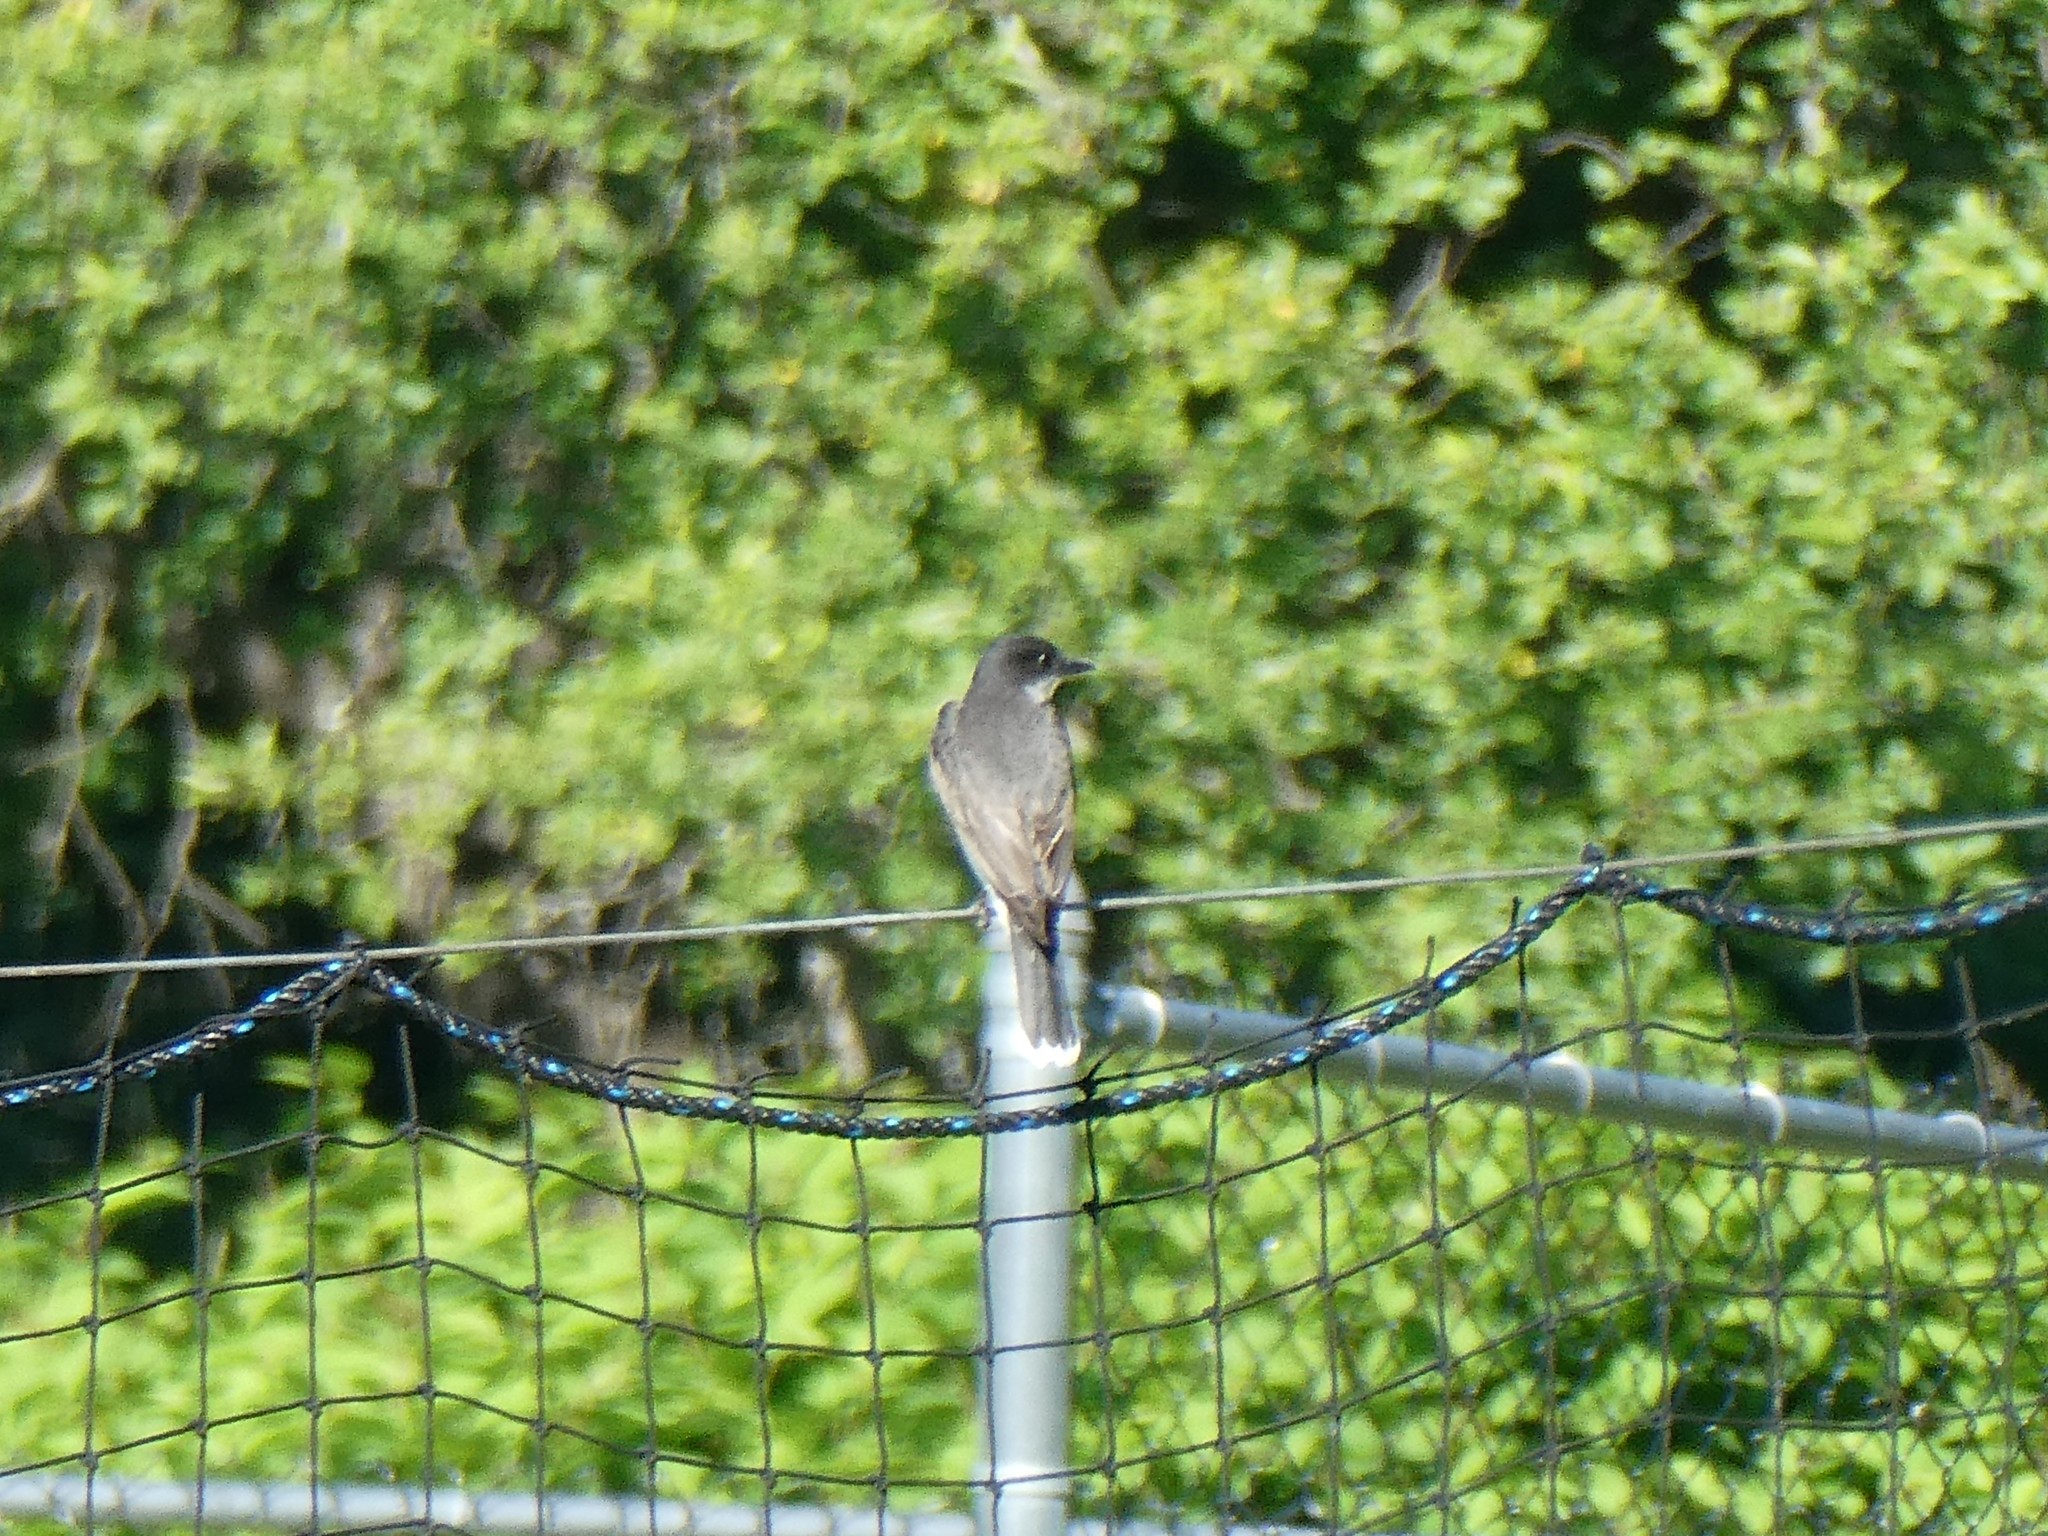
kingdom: Animalia
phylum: Chordata
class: Aves
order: Passeriformes
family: Tyrannidae
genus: Tyrannus
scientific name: Tyrannus tyrannus
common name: Eastern kingbird
